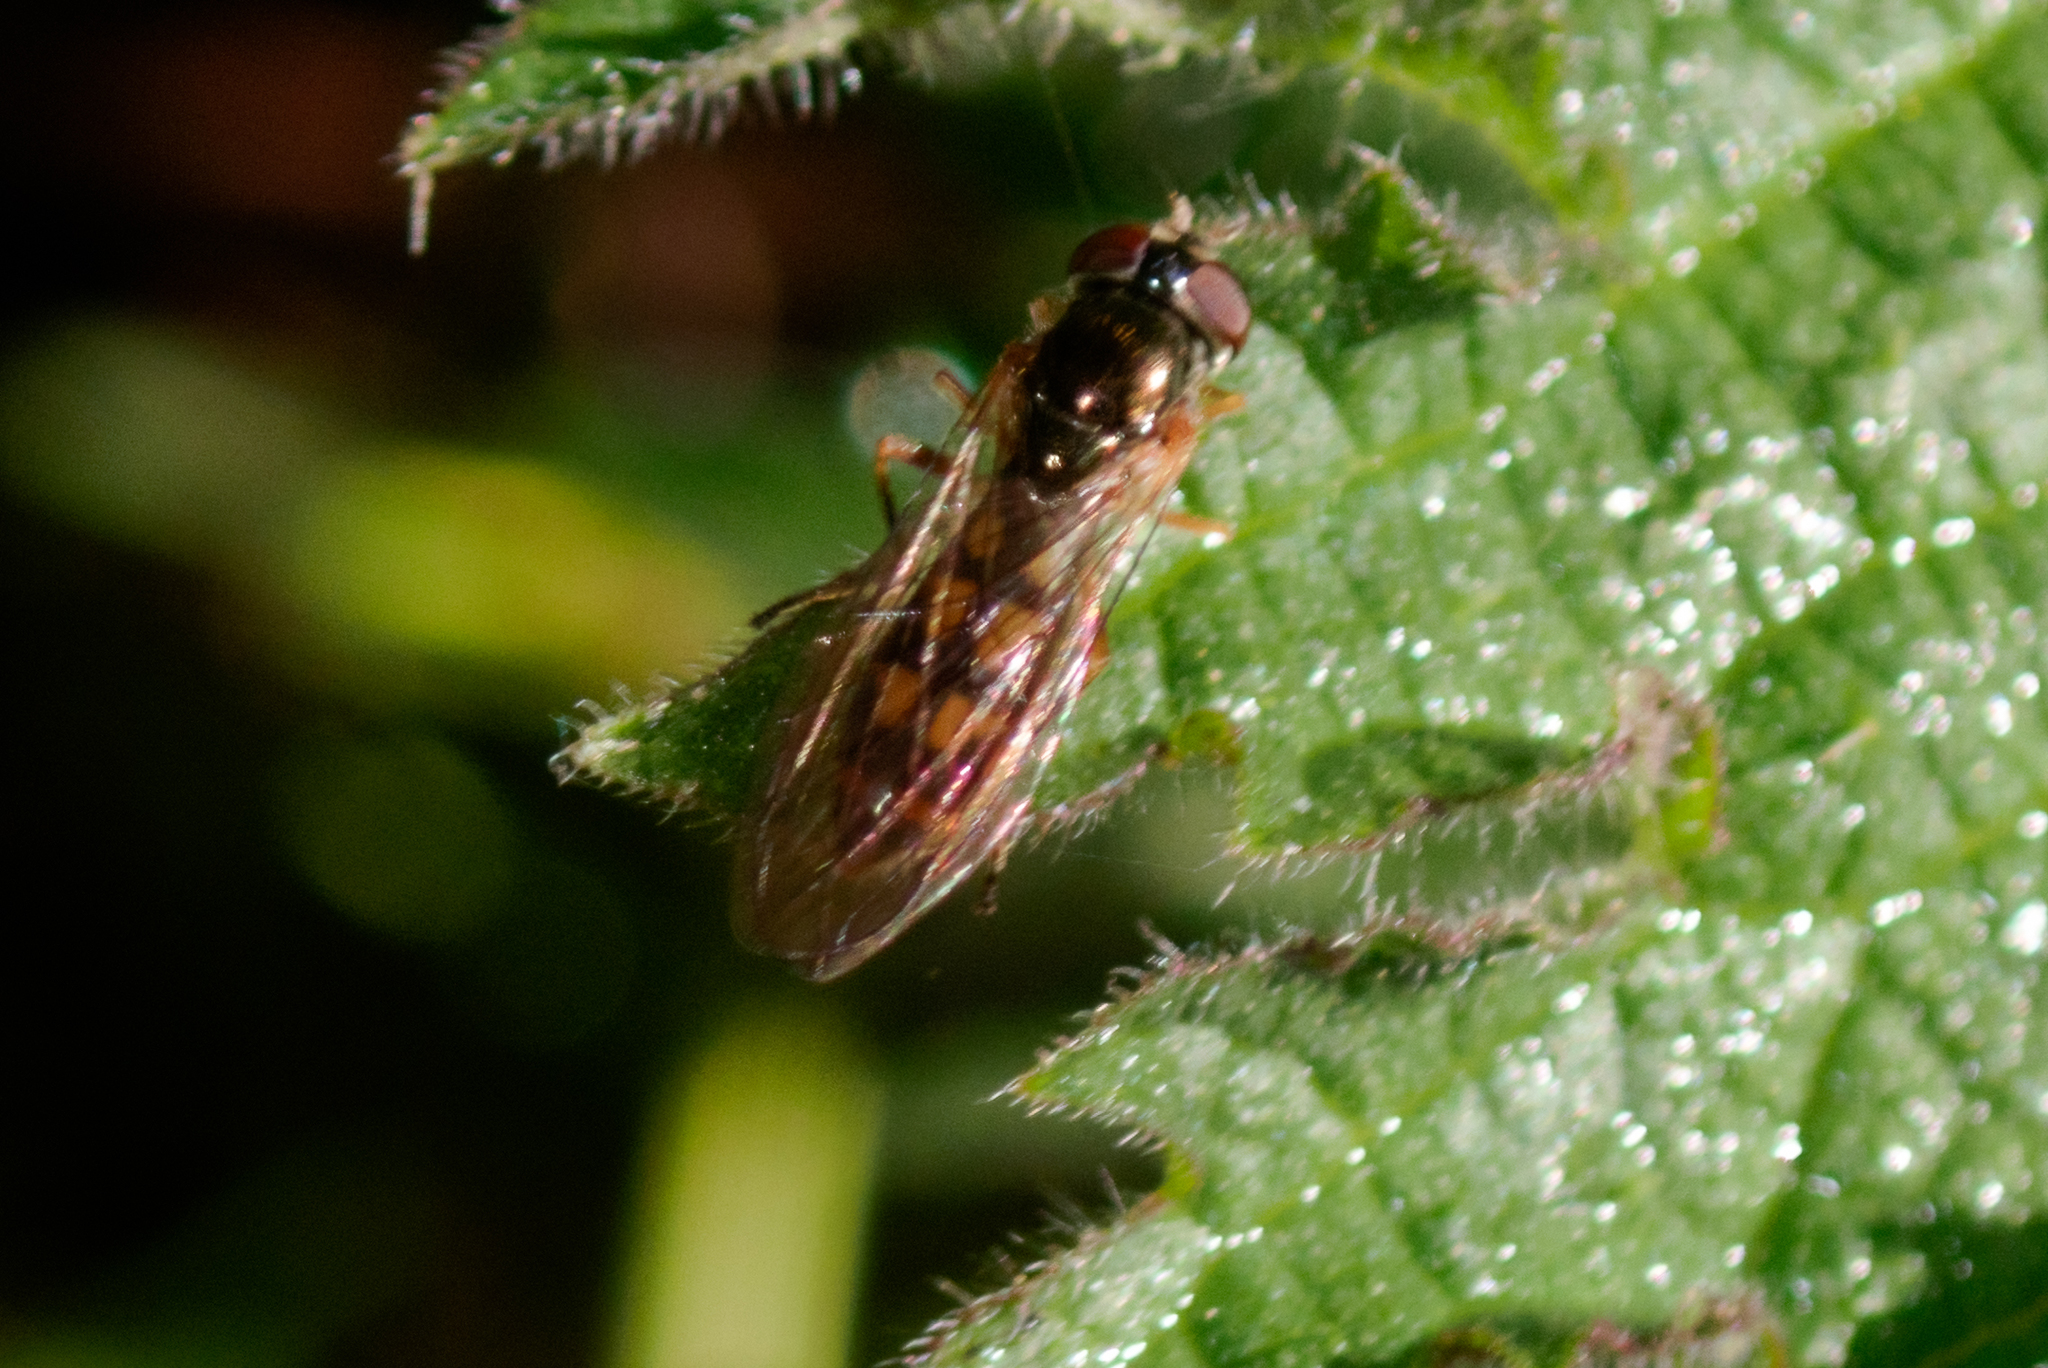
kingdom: Animalia
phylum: Arthropoda
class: Insecta
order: Diptera
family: Syrphidae
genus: Melanostoma
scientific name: Melanostoma scalare
